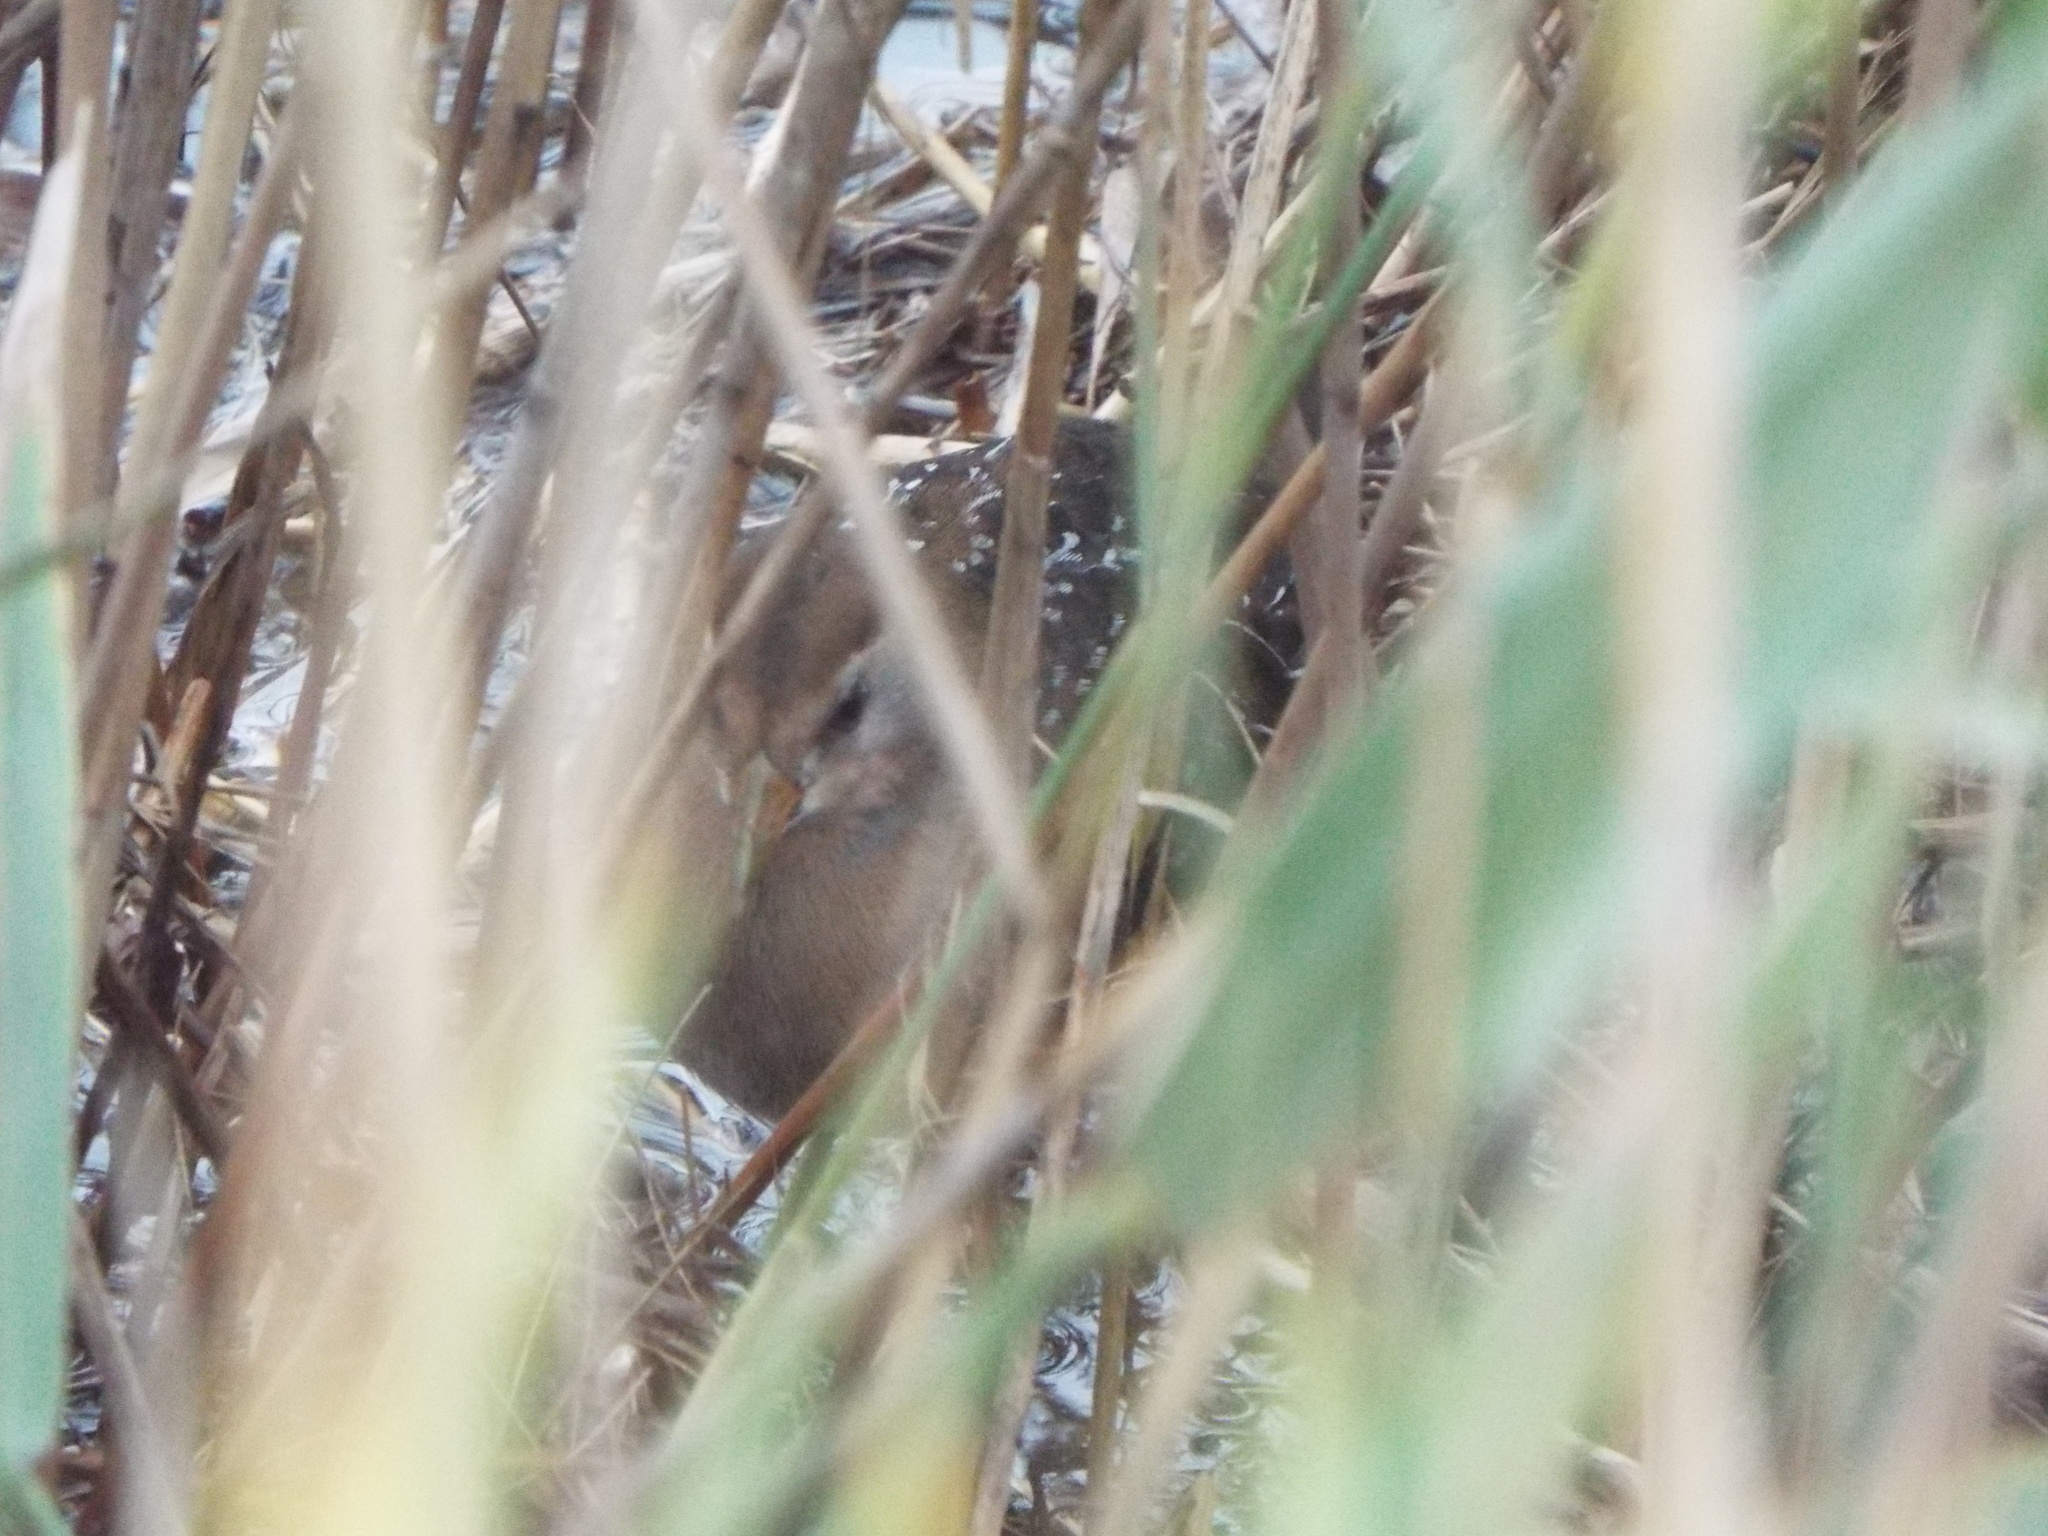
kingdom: Animalia
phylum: Chordata
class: Aves
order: Gruiformes
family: Rallidae
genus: Porzana
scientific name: Porzana carolina
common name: Sora
